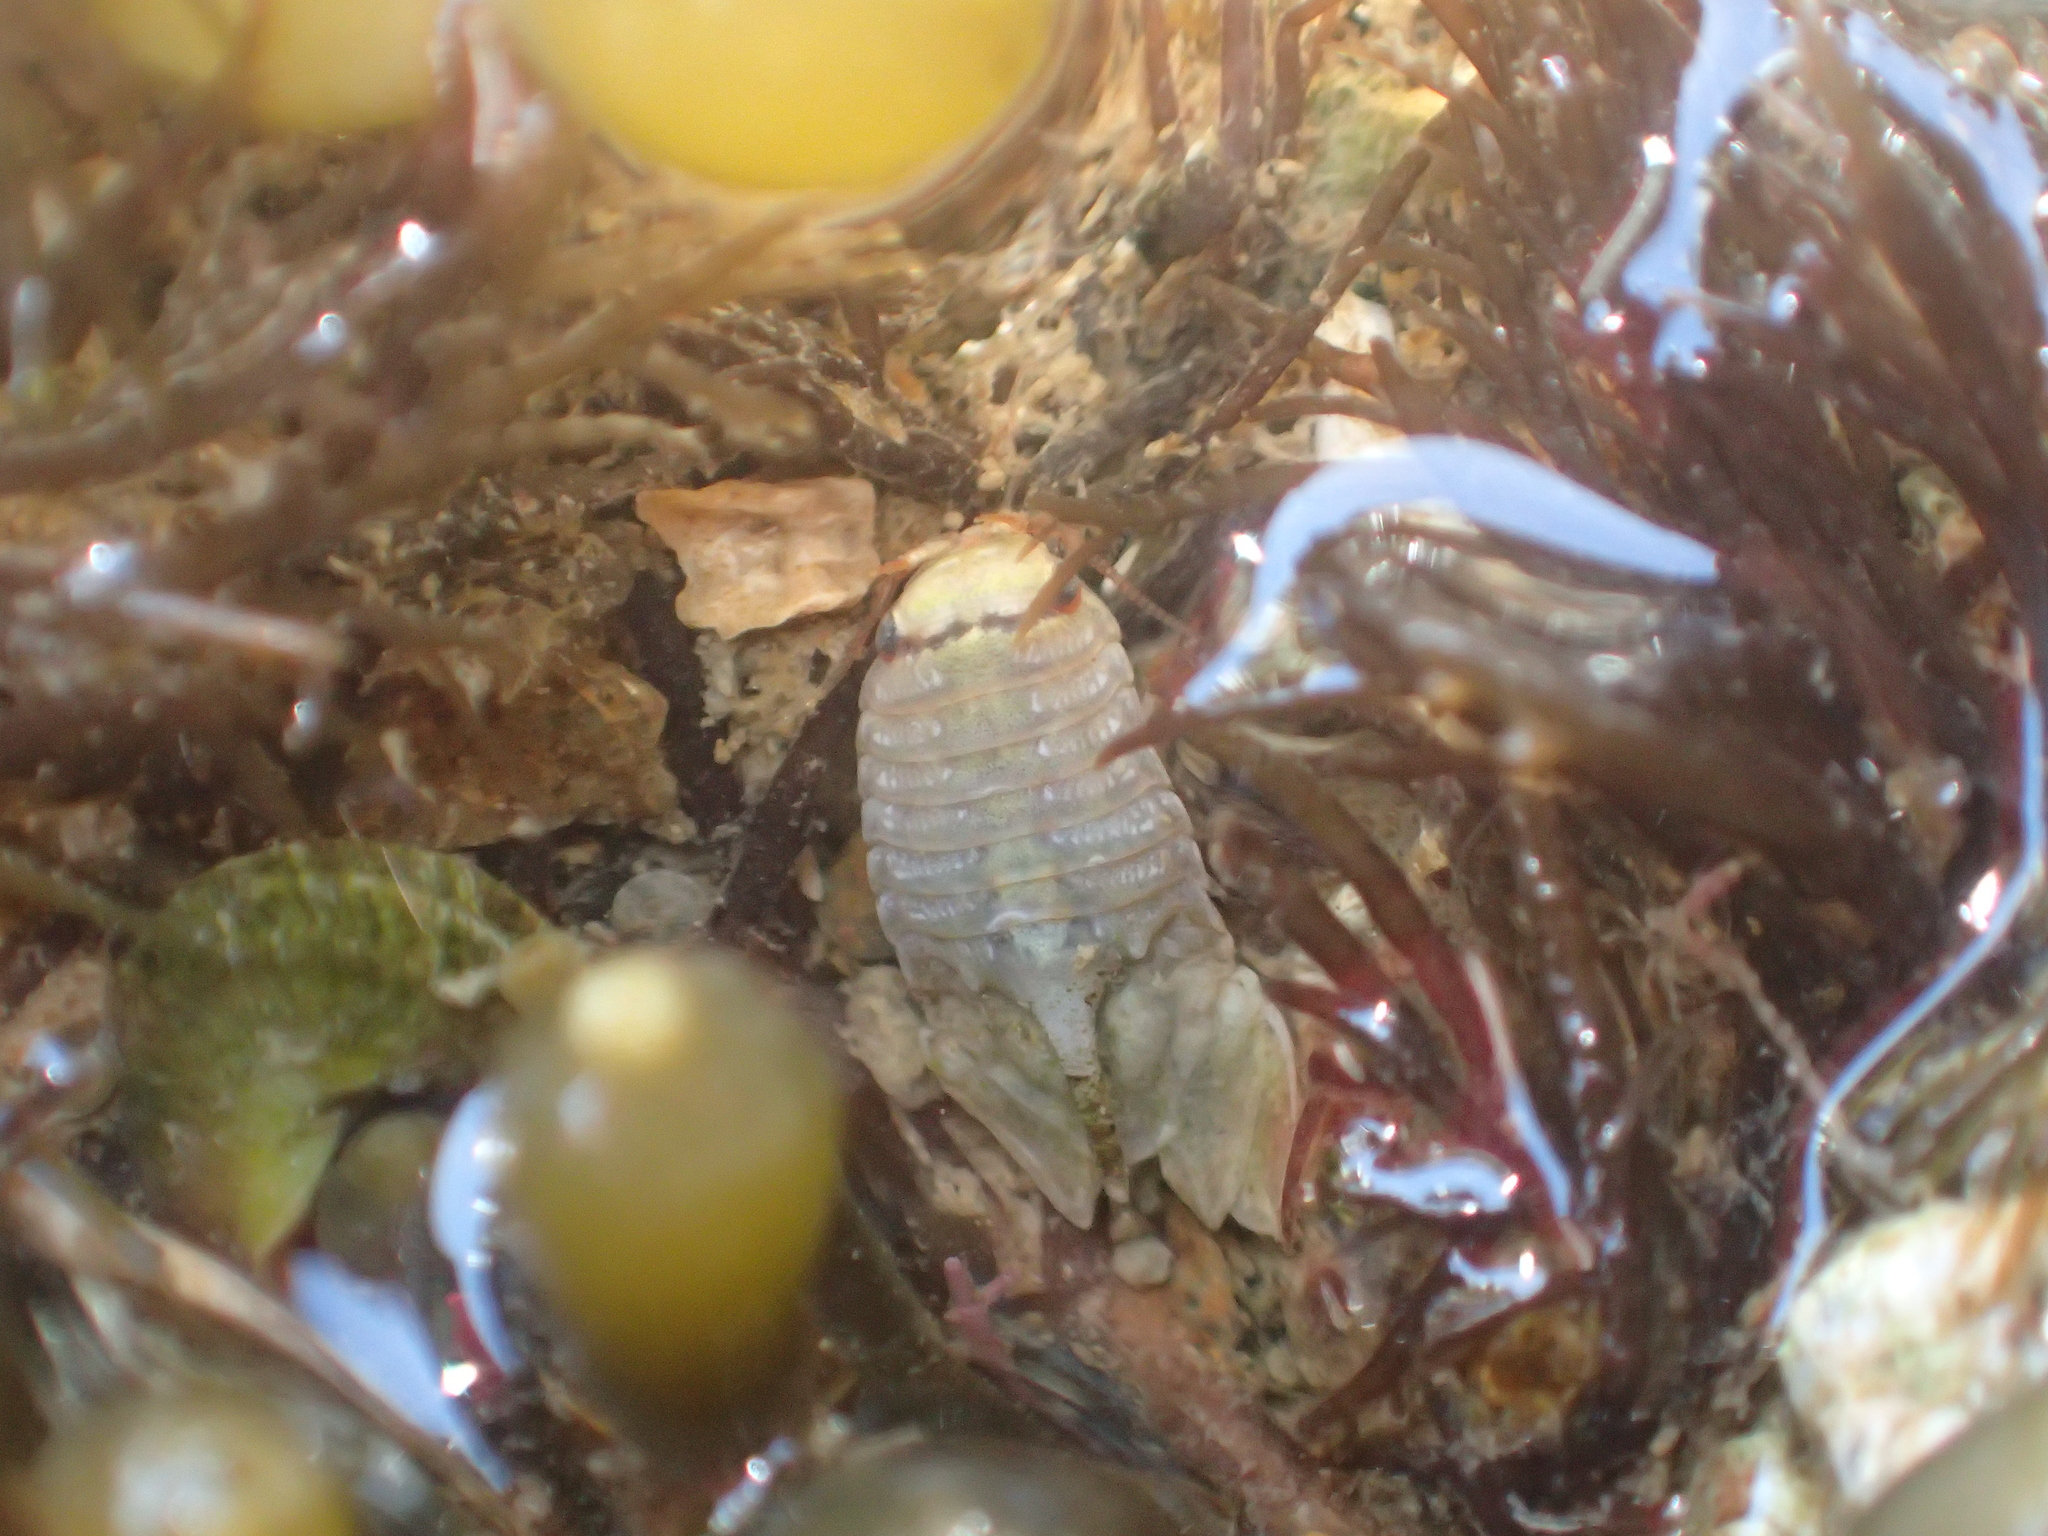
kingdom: Animalia
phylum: Arthropoda
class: Malacostraca
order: Isopoda
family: Sphaeromatidae
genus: Isocladus
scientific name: Isocladus armatus
